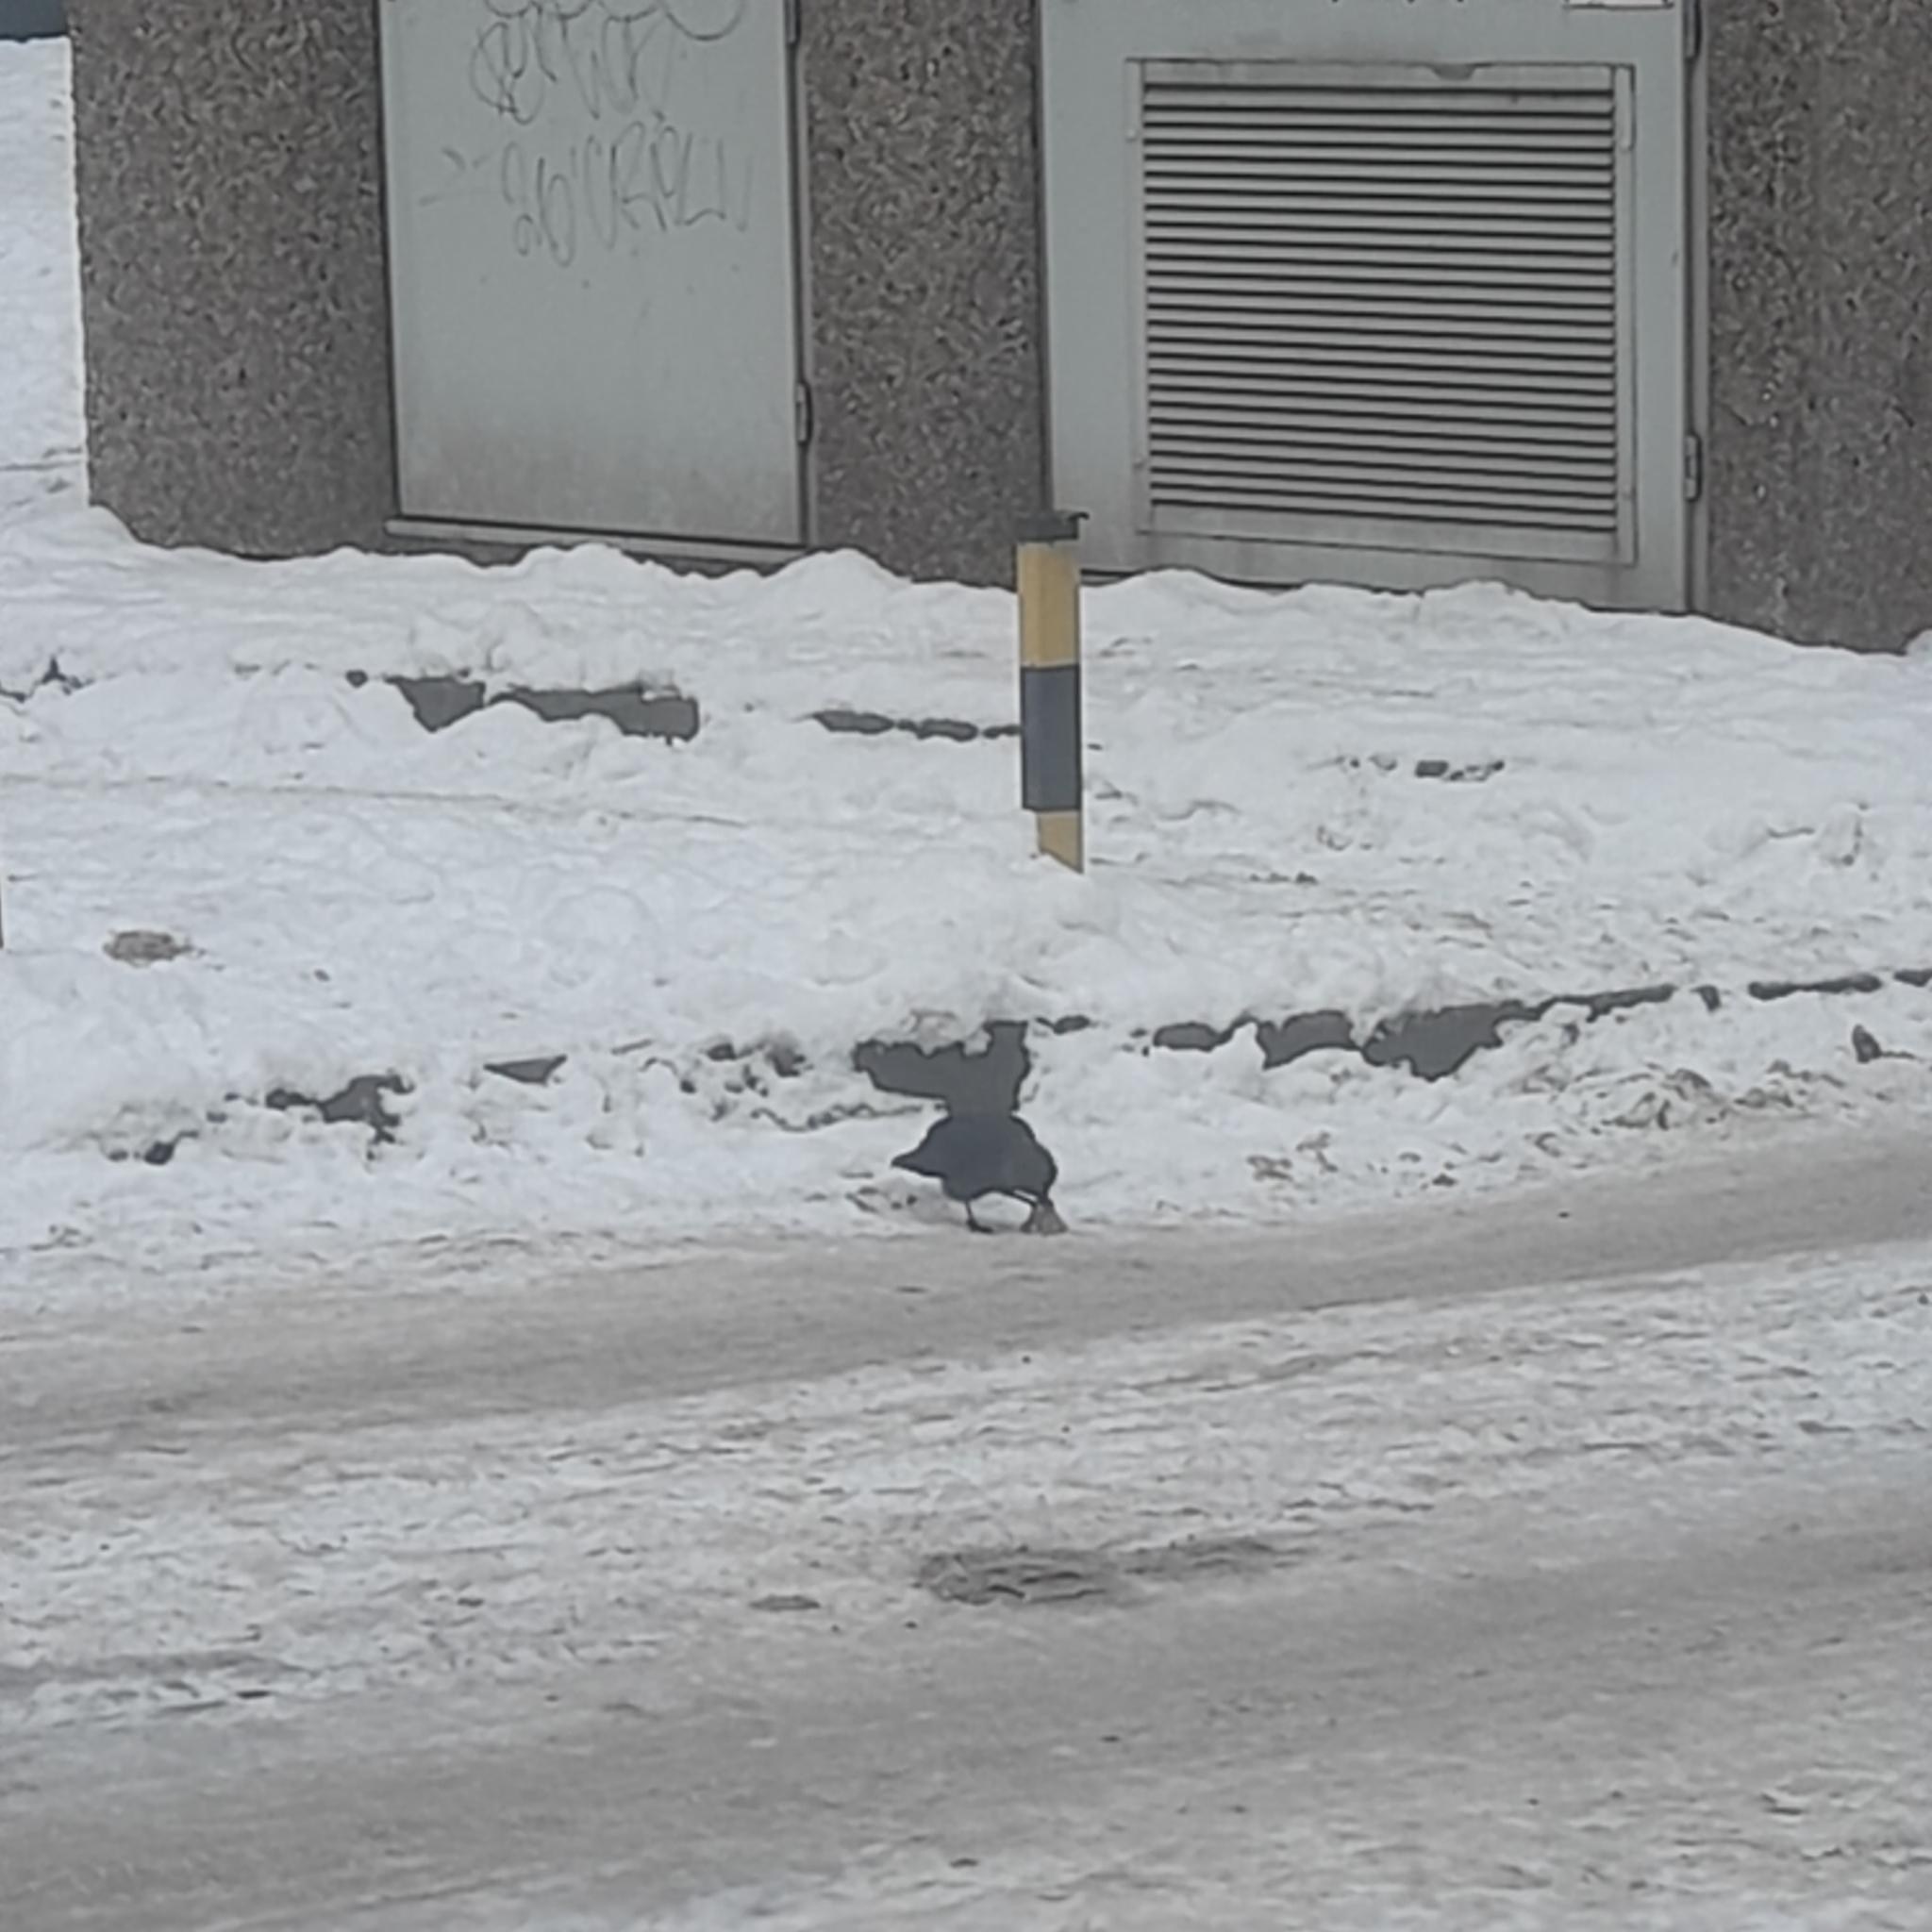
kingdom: Animalia
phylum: Chordata
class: Aves
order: Passeriformes
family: Corvidae
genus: Coloeus
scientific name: Coloeus monedula
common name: Western jackdaw
